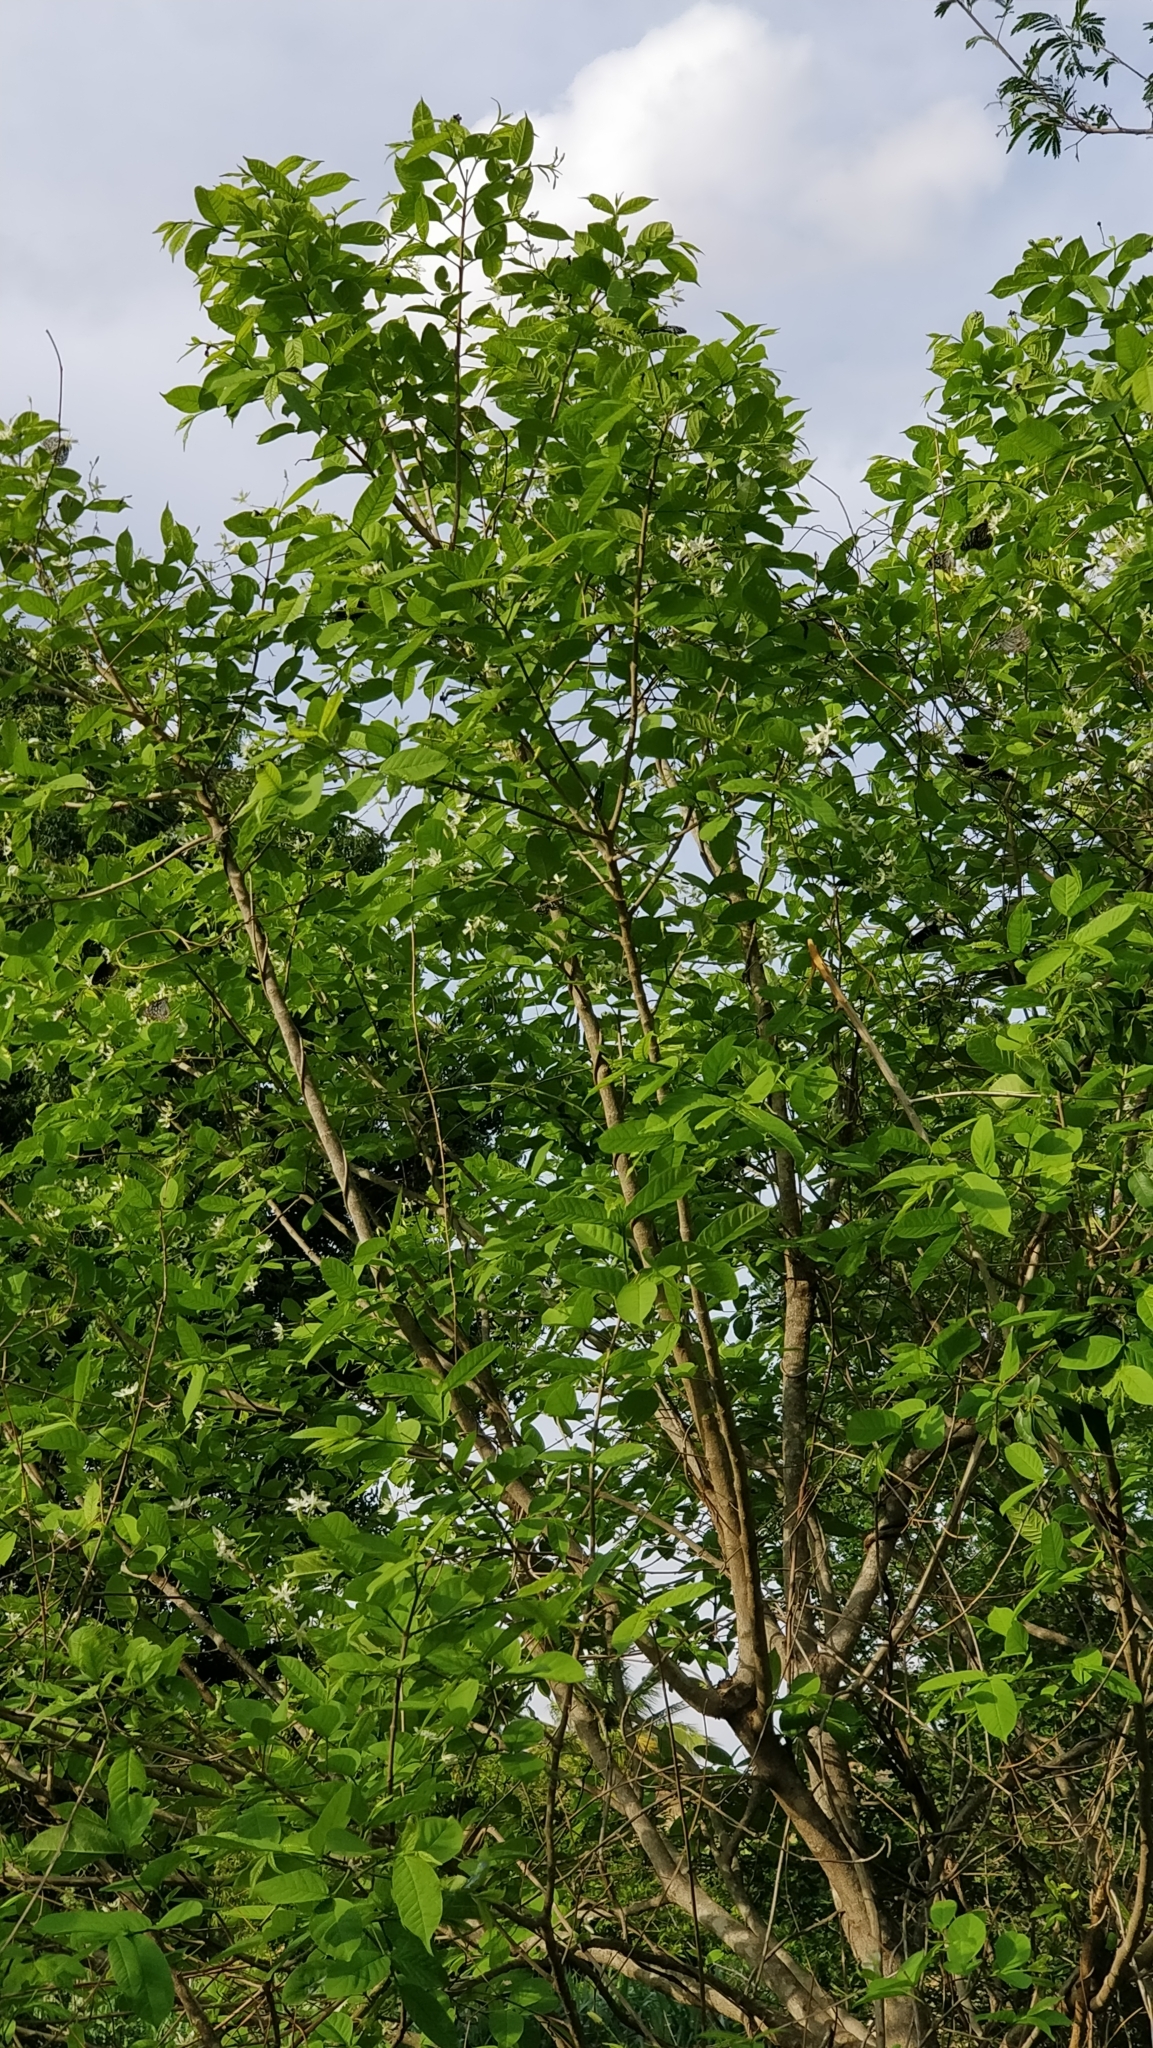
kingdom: Plantae
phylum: Tracheophyta
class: Magnoliopsida
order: Gentianales
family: Apocynaceae
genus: Wrightia
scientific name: Wrightia tinctoria
